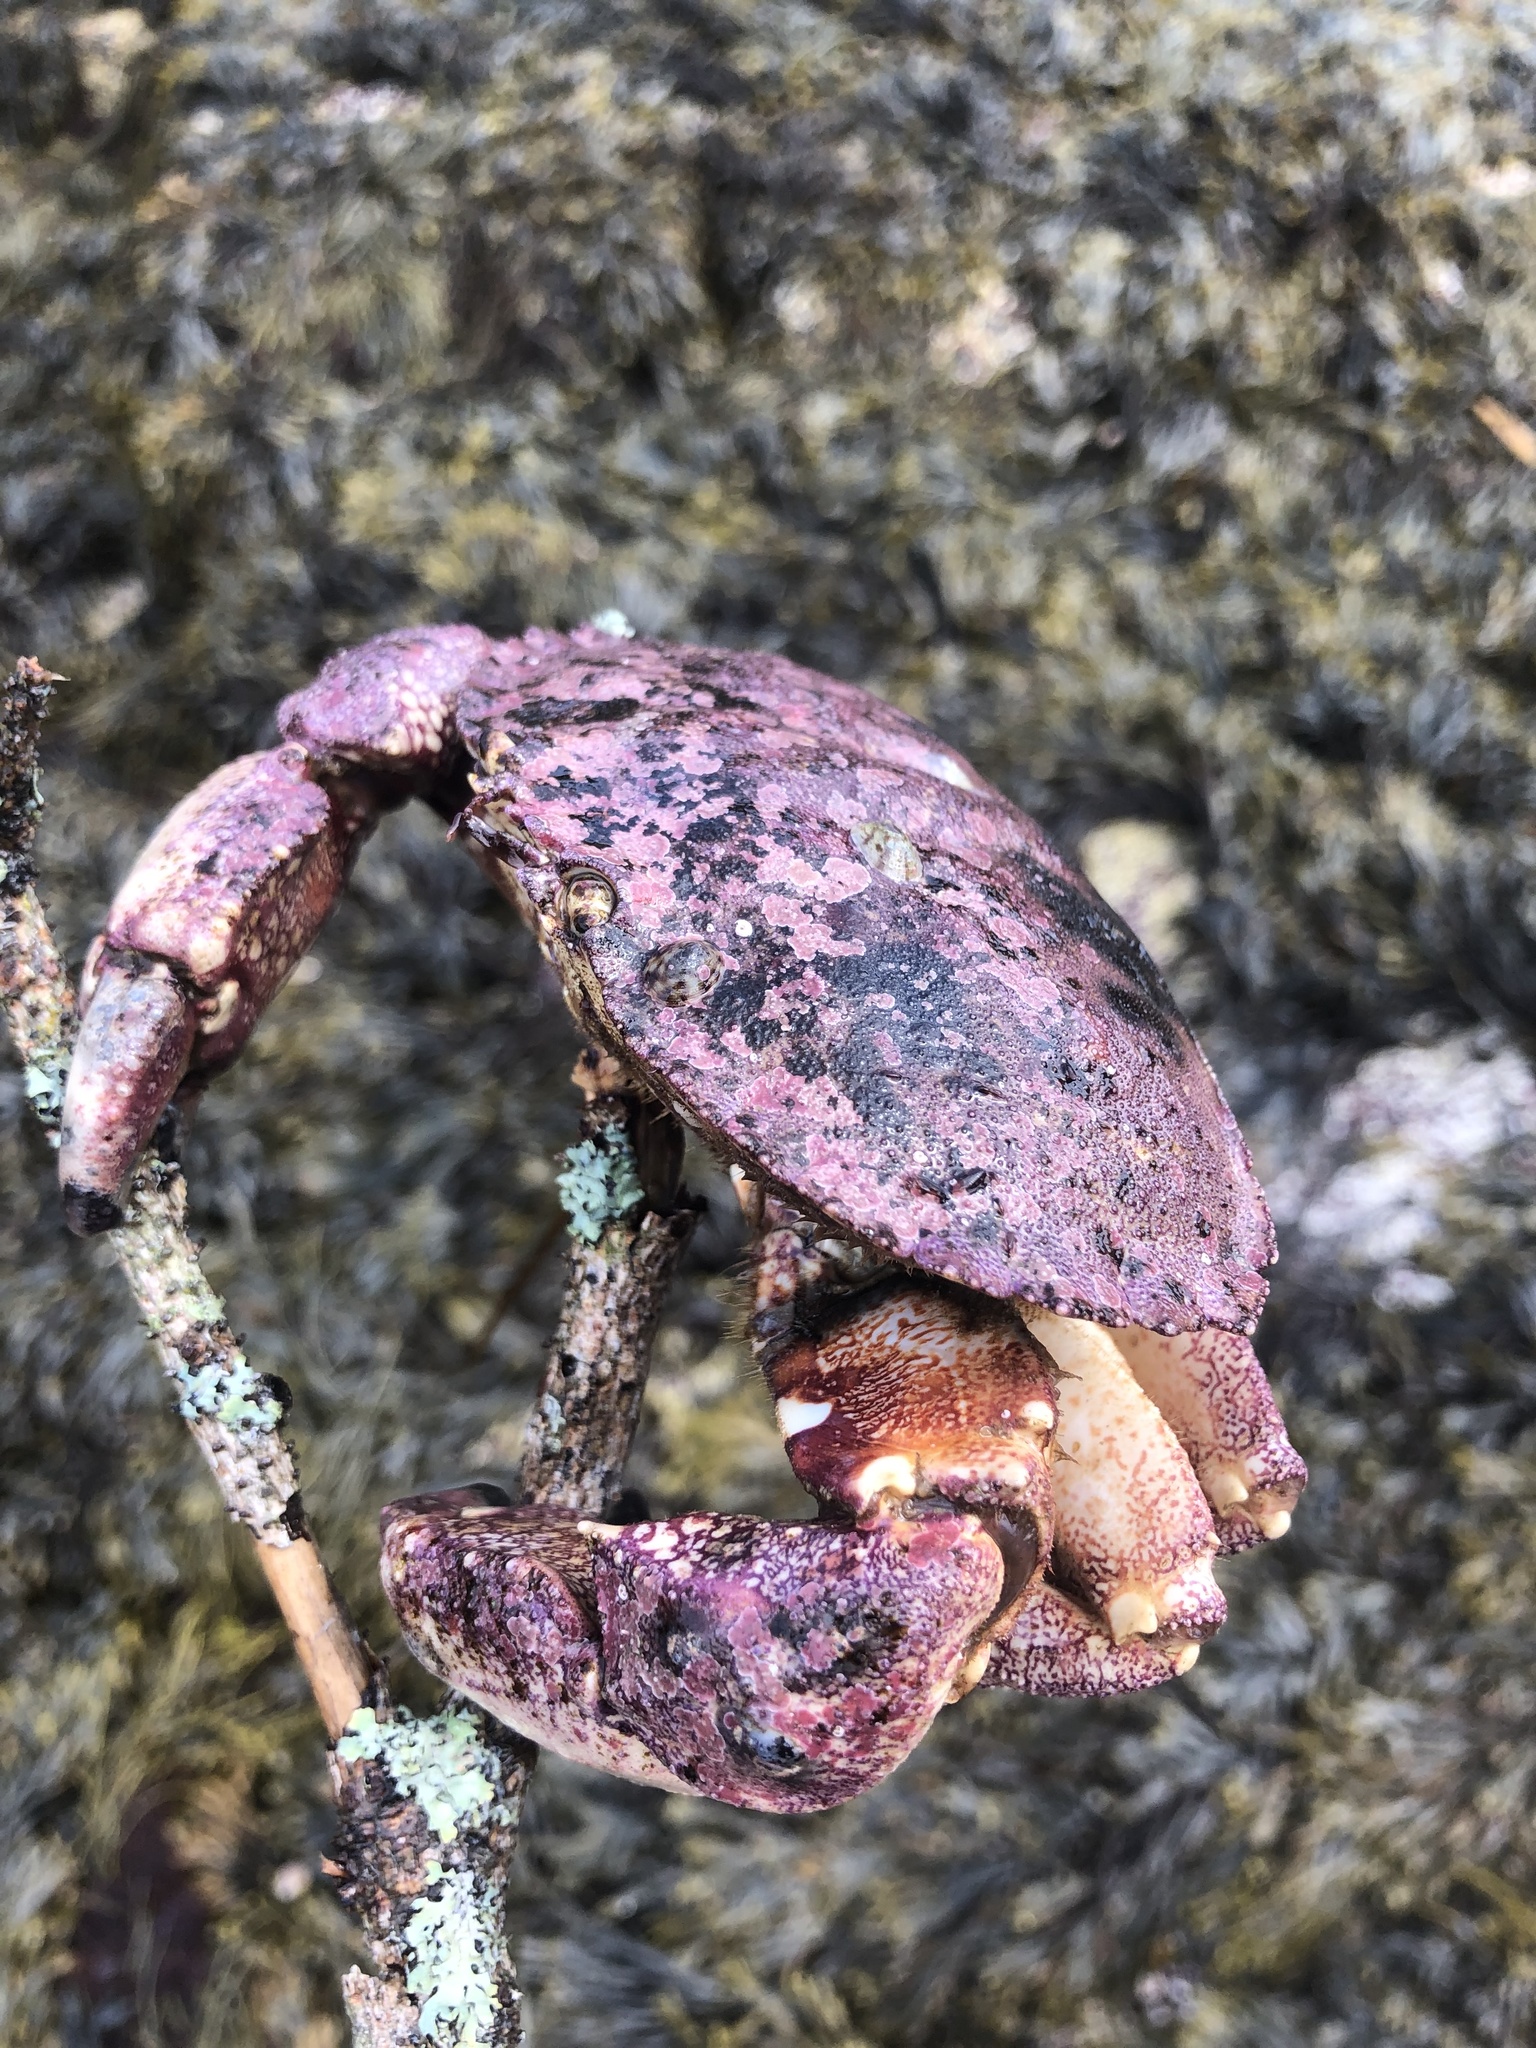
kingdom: Animalia
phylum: Arthropoda
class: Malacostraca
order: Decapoda
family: Cancridae
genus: Cancer
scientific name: Cancer borealis
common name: Jonah crab
